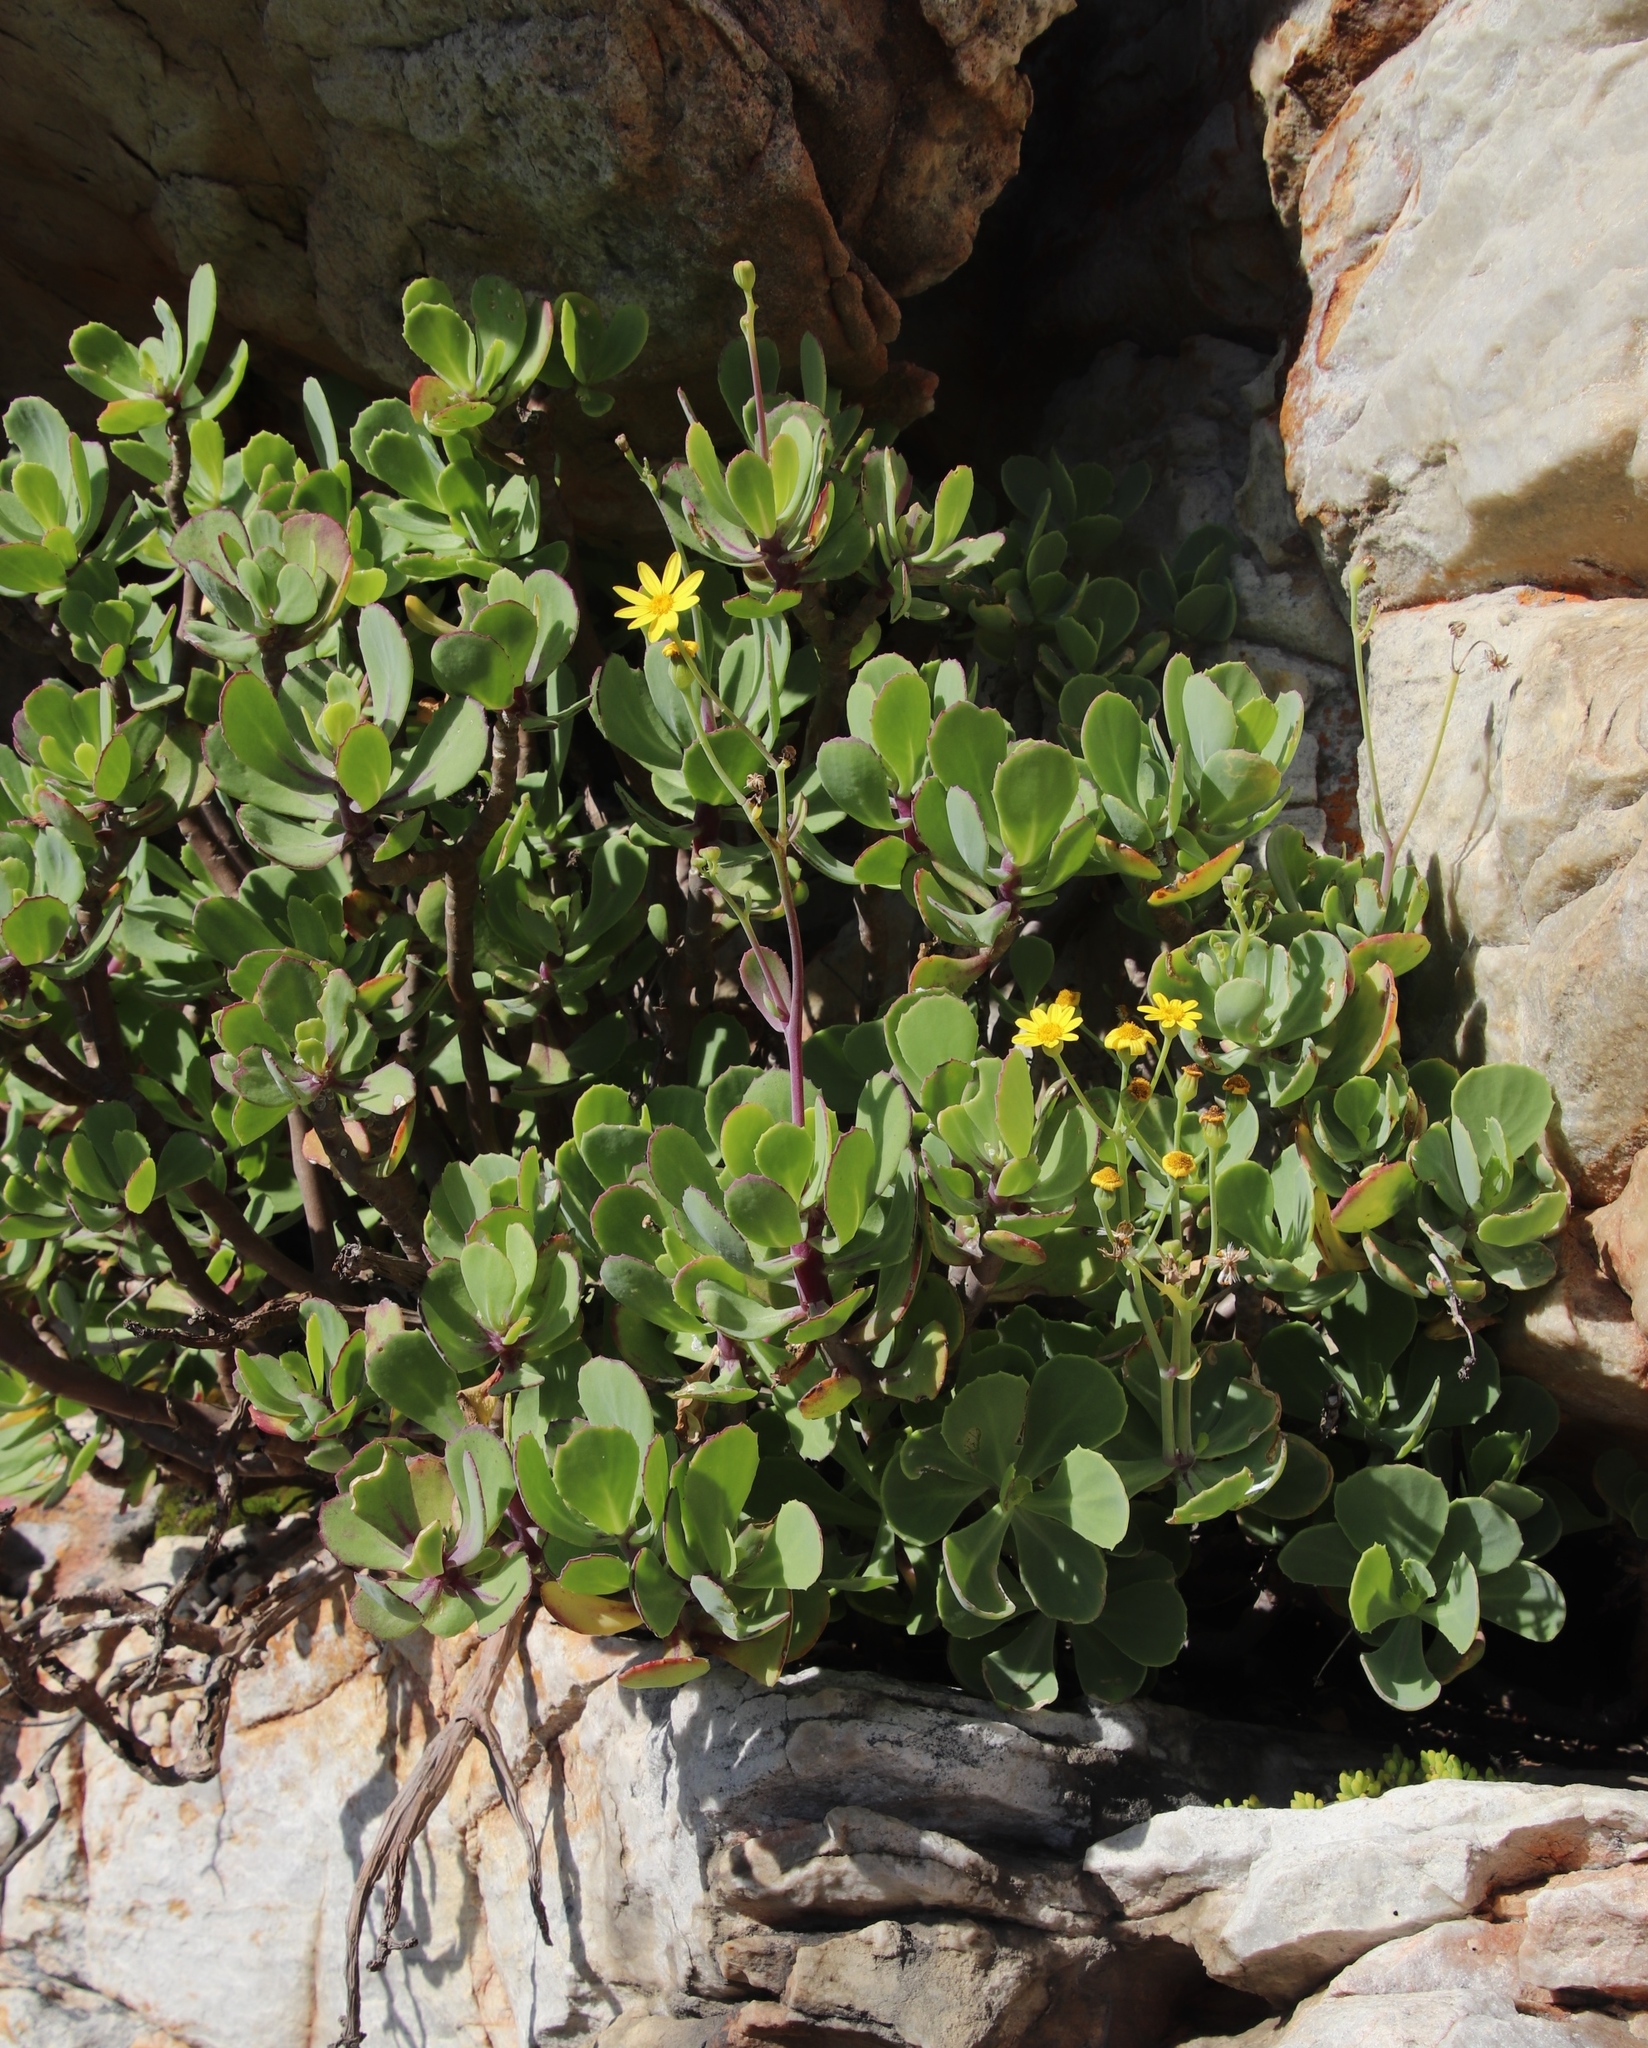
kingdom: Plantae
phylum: Tracheophyta
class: Magnoliopsida
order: Asterales
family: Asteraceae
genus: Othonna
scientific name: Othonna dentata
